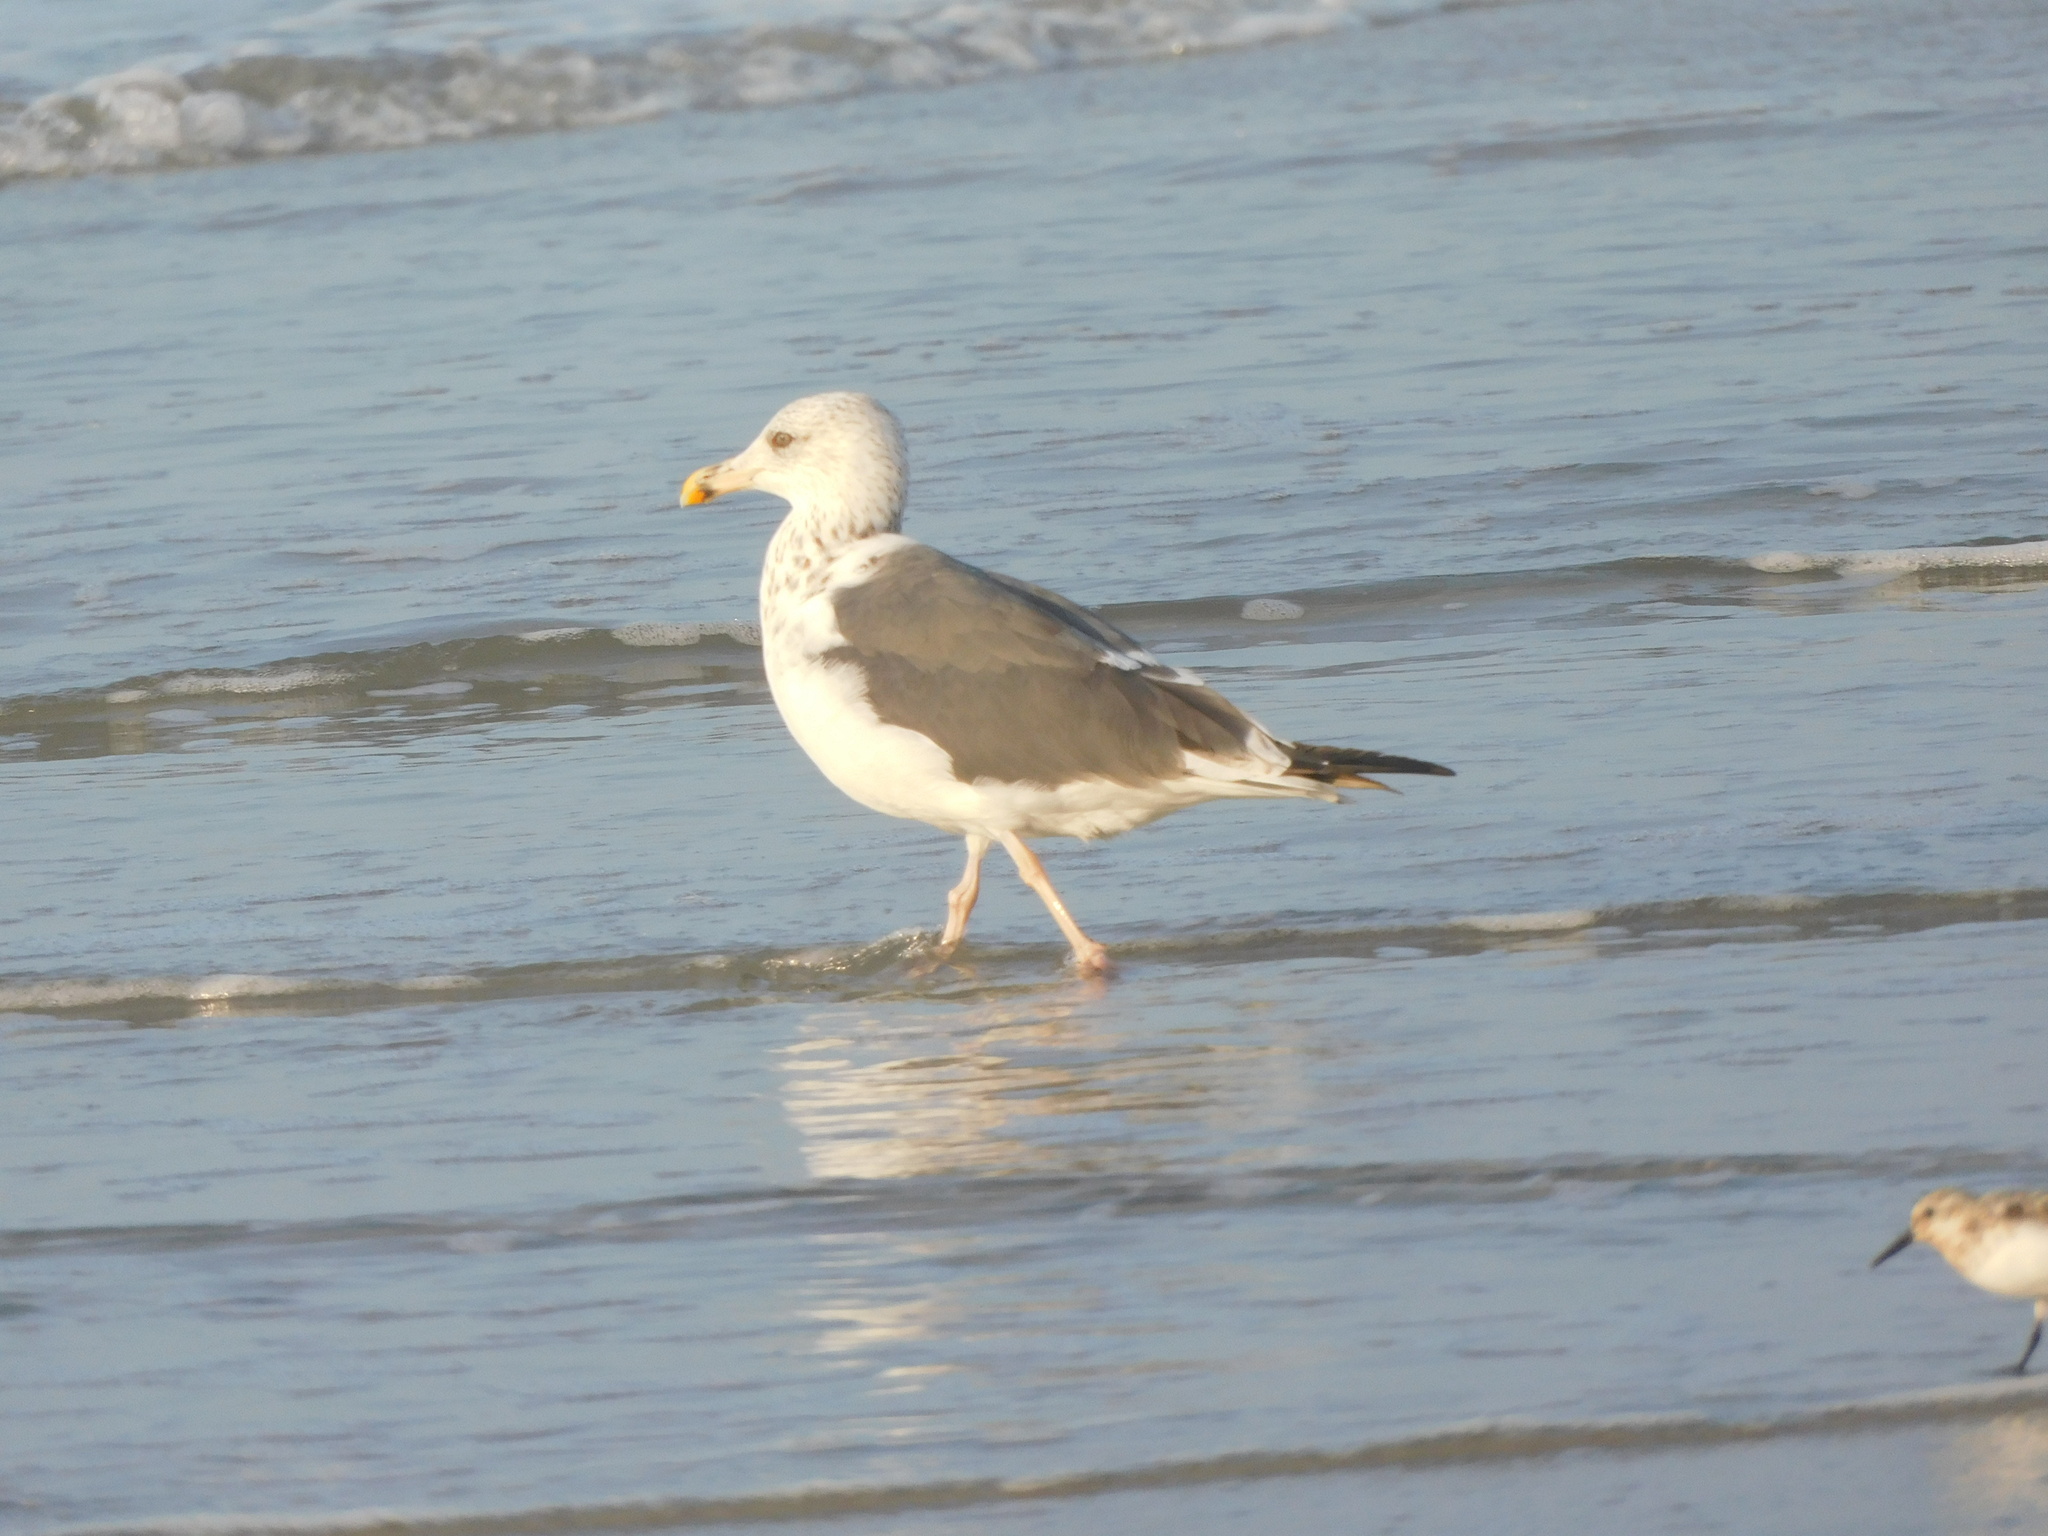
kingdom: Animalia
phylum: Chordata
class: Aves
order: Charadriiformes
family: Laridae
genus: Larus
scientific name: Larus fuscus
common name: Lesser black-backed gull
